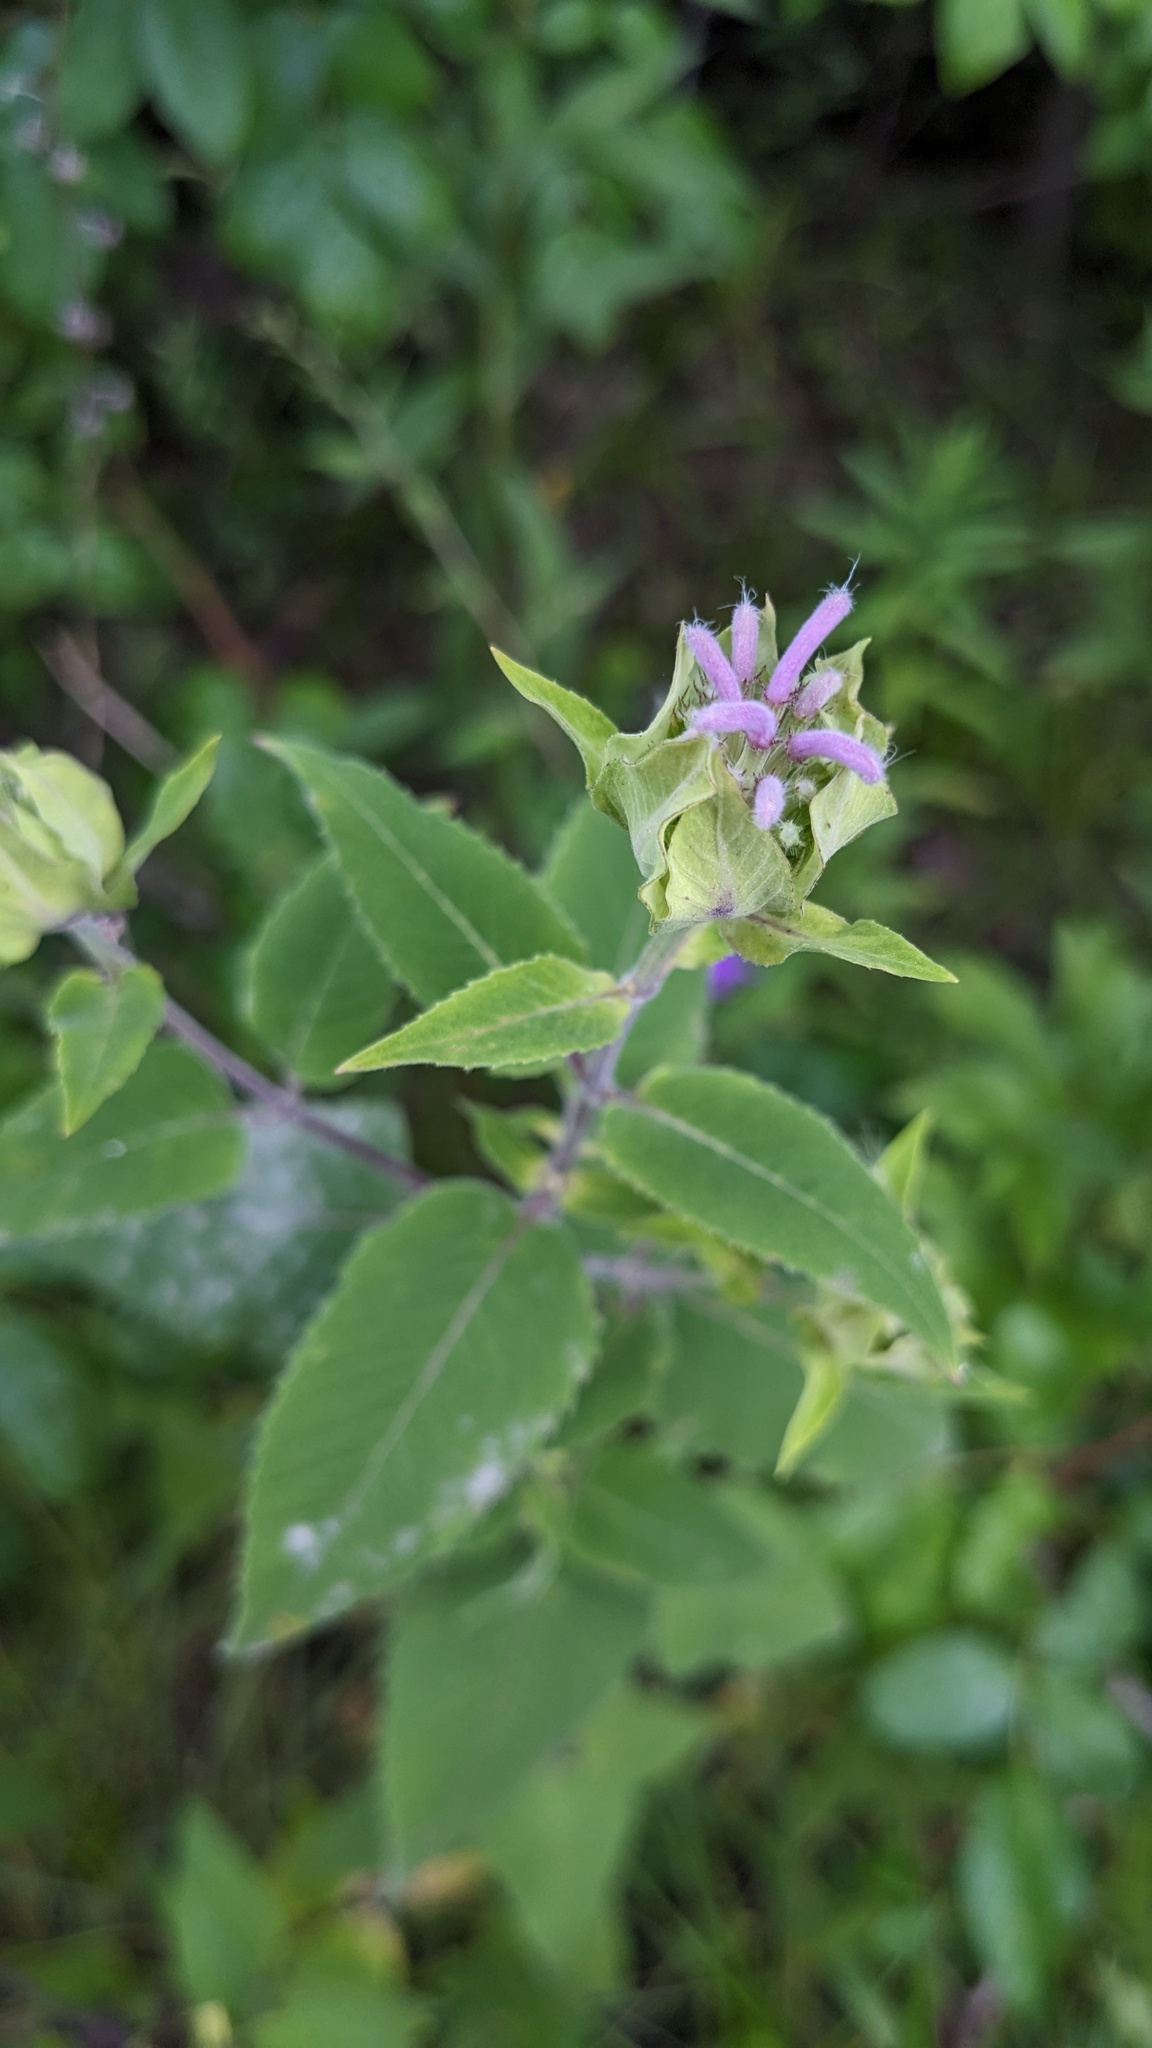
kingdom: Plantae
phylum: Tracheophyta
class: Magnoliopsida
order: Lamiales
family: Lamiaceae
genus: Monarda
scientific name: Monarda fistulosa
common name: Purple beebalm
